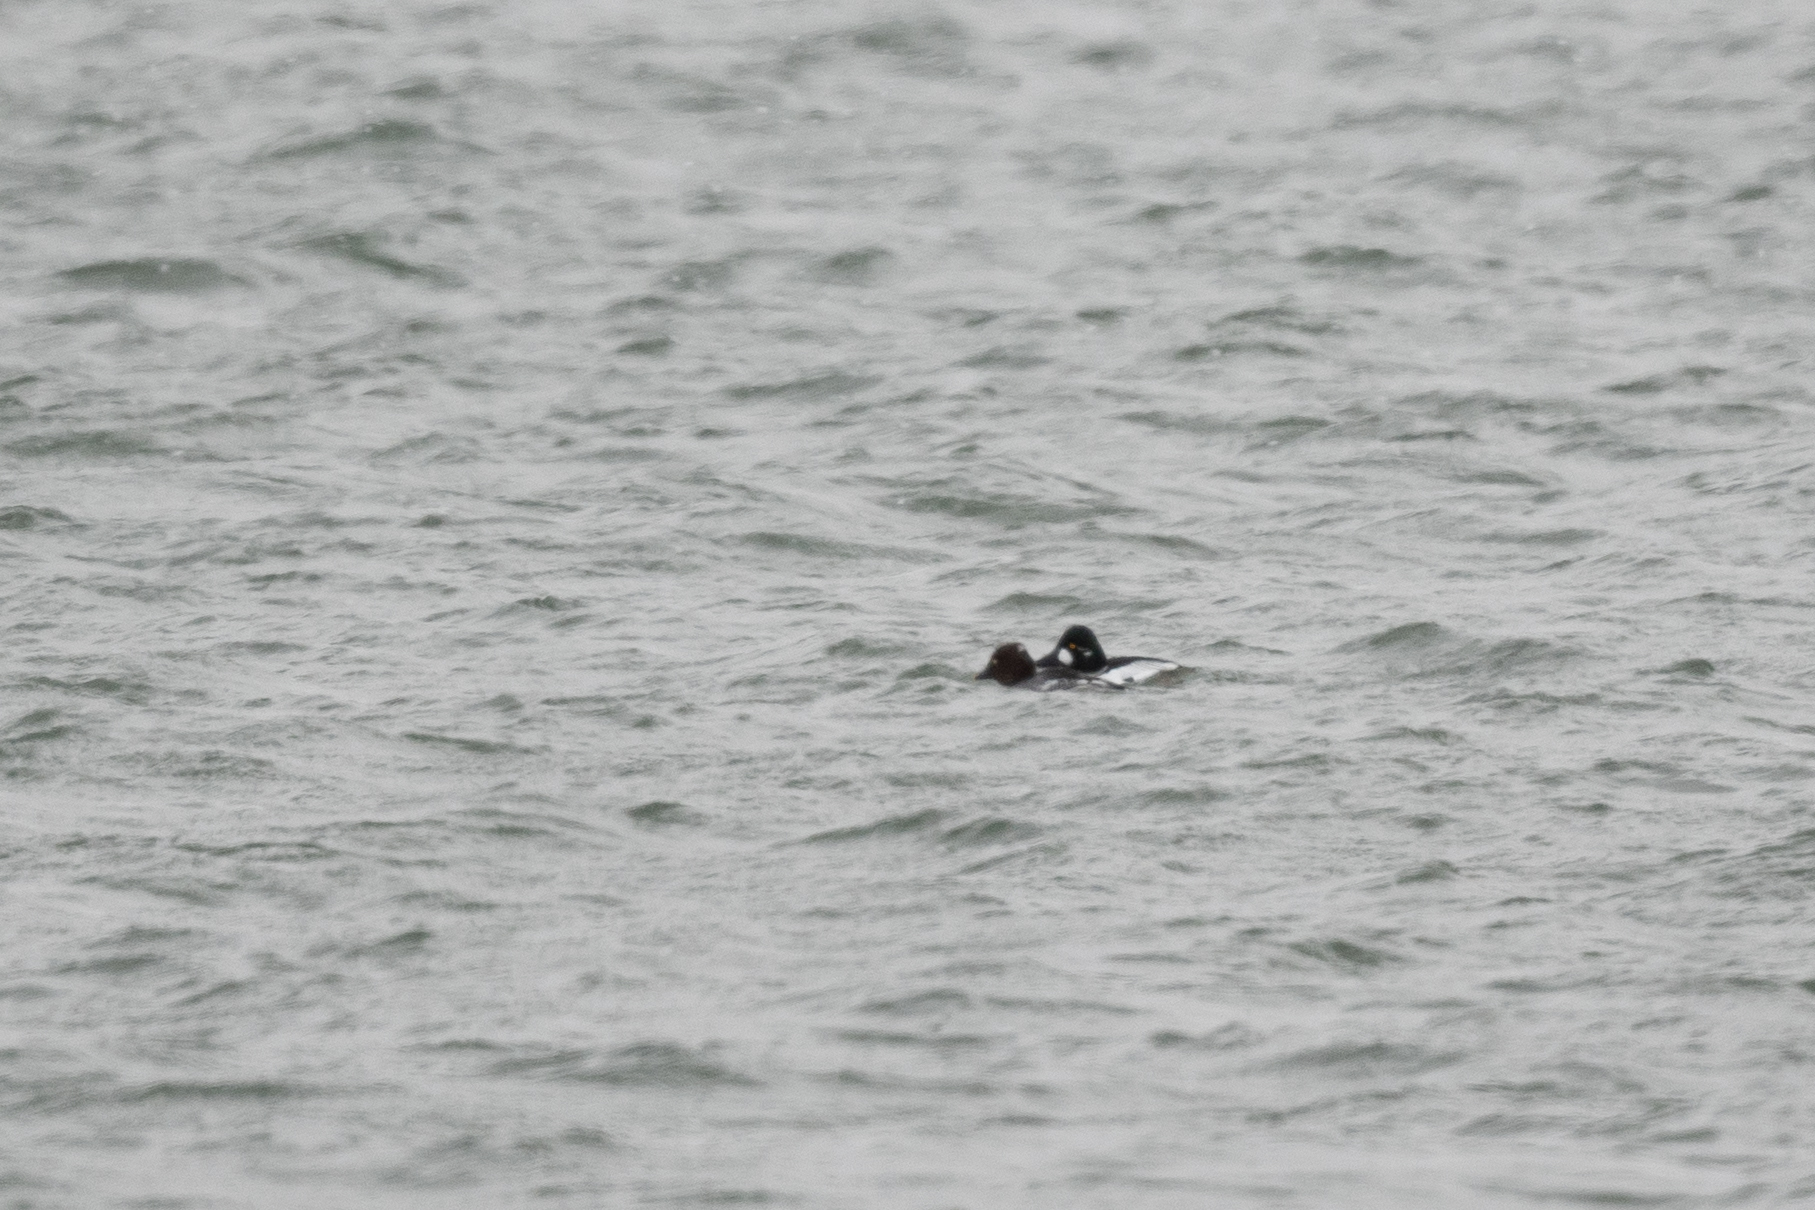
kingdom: Animalia
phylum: Chordata
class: Aves
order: Anseriformes
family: Anatidae
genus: Bucephala
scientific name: Bucephala clangula
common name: Common goldeneye
